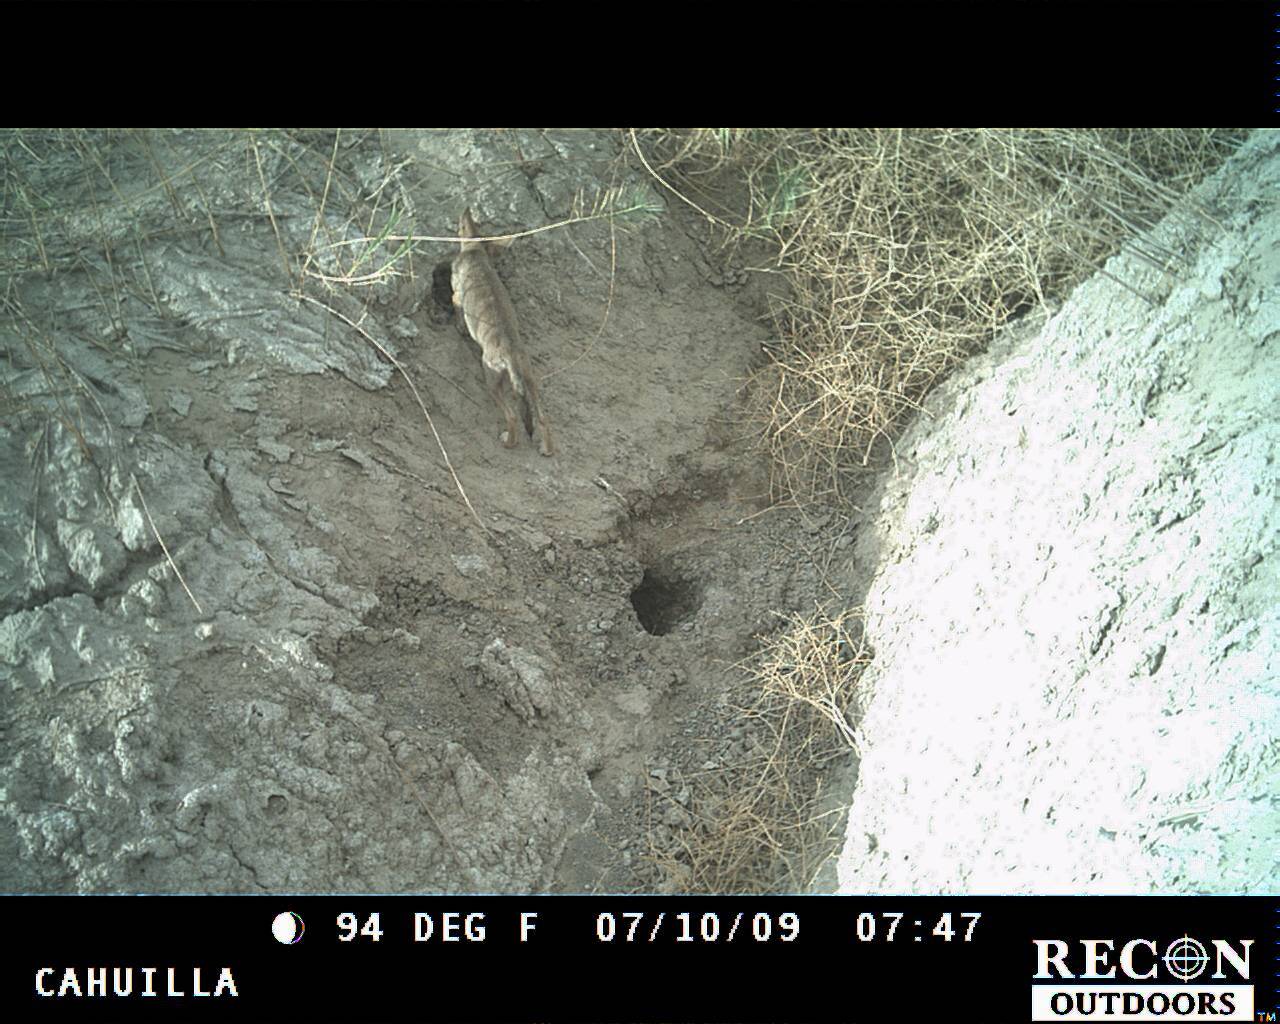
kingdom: Animalia
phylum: Chordata
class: Mammalia
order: Carnivora
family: Canidae
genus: Canis
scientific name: Canis latrans
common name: Coyote
